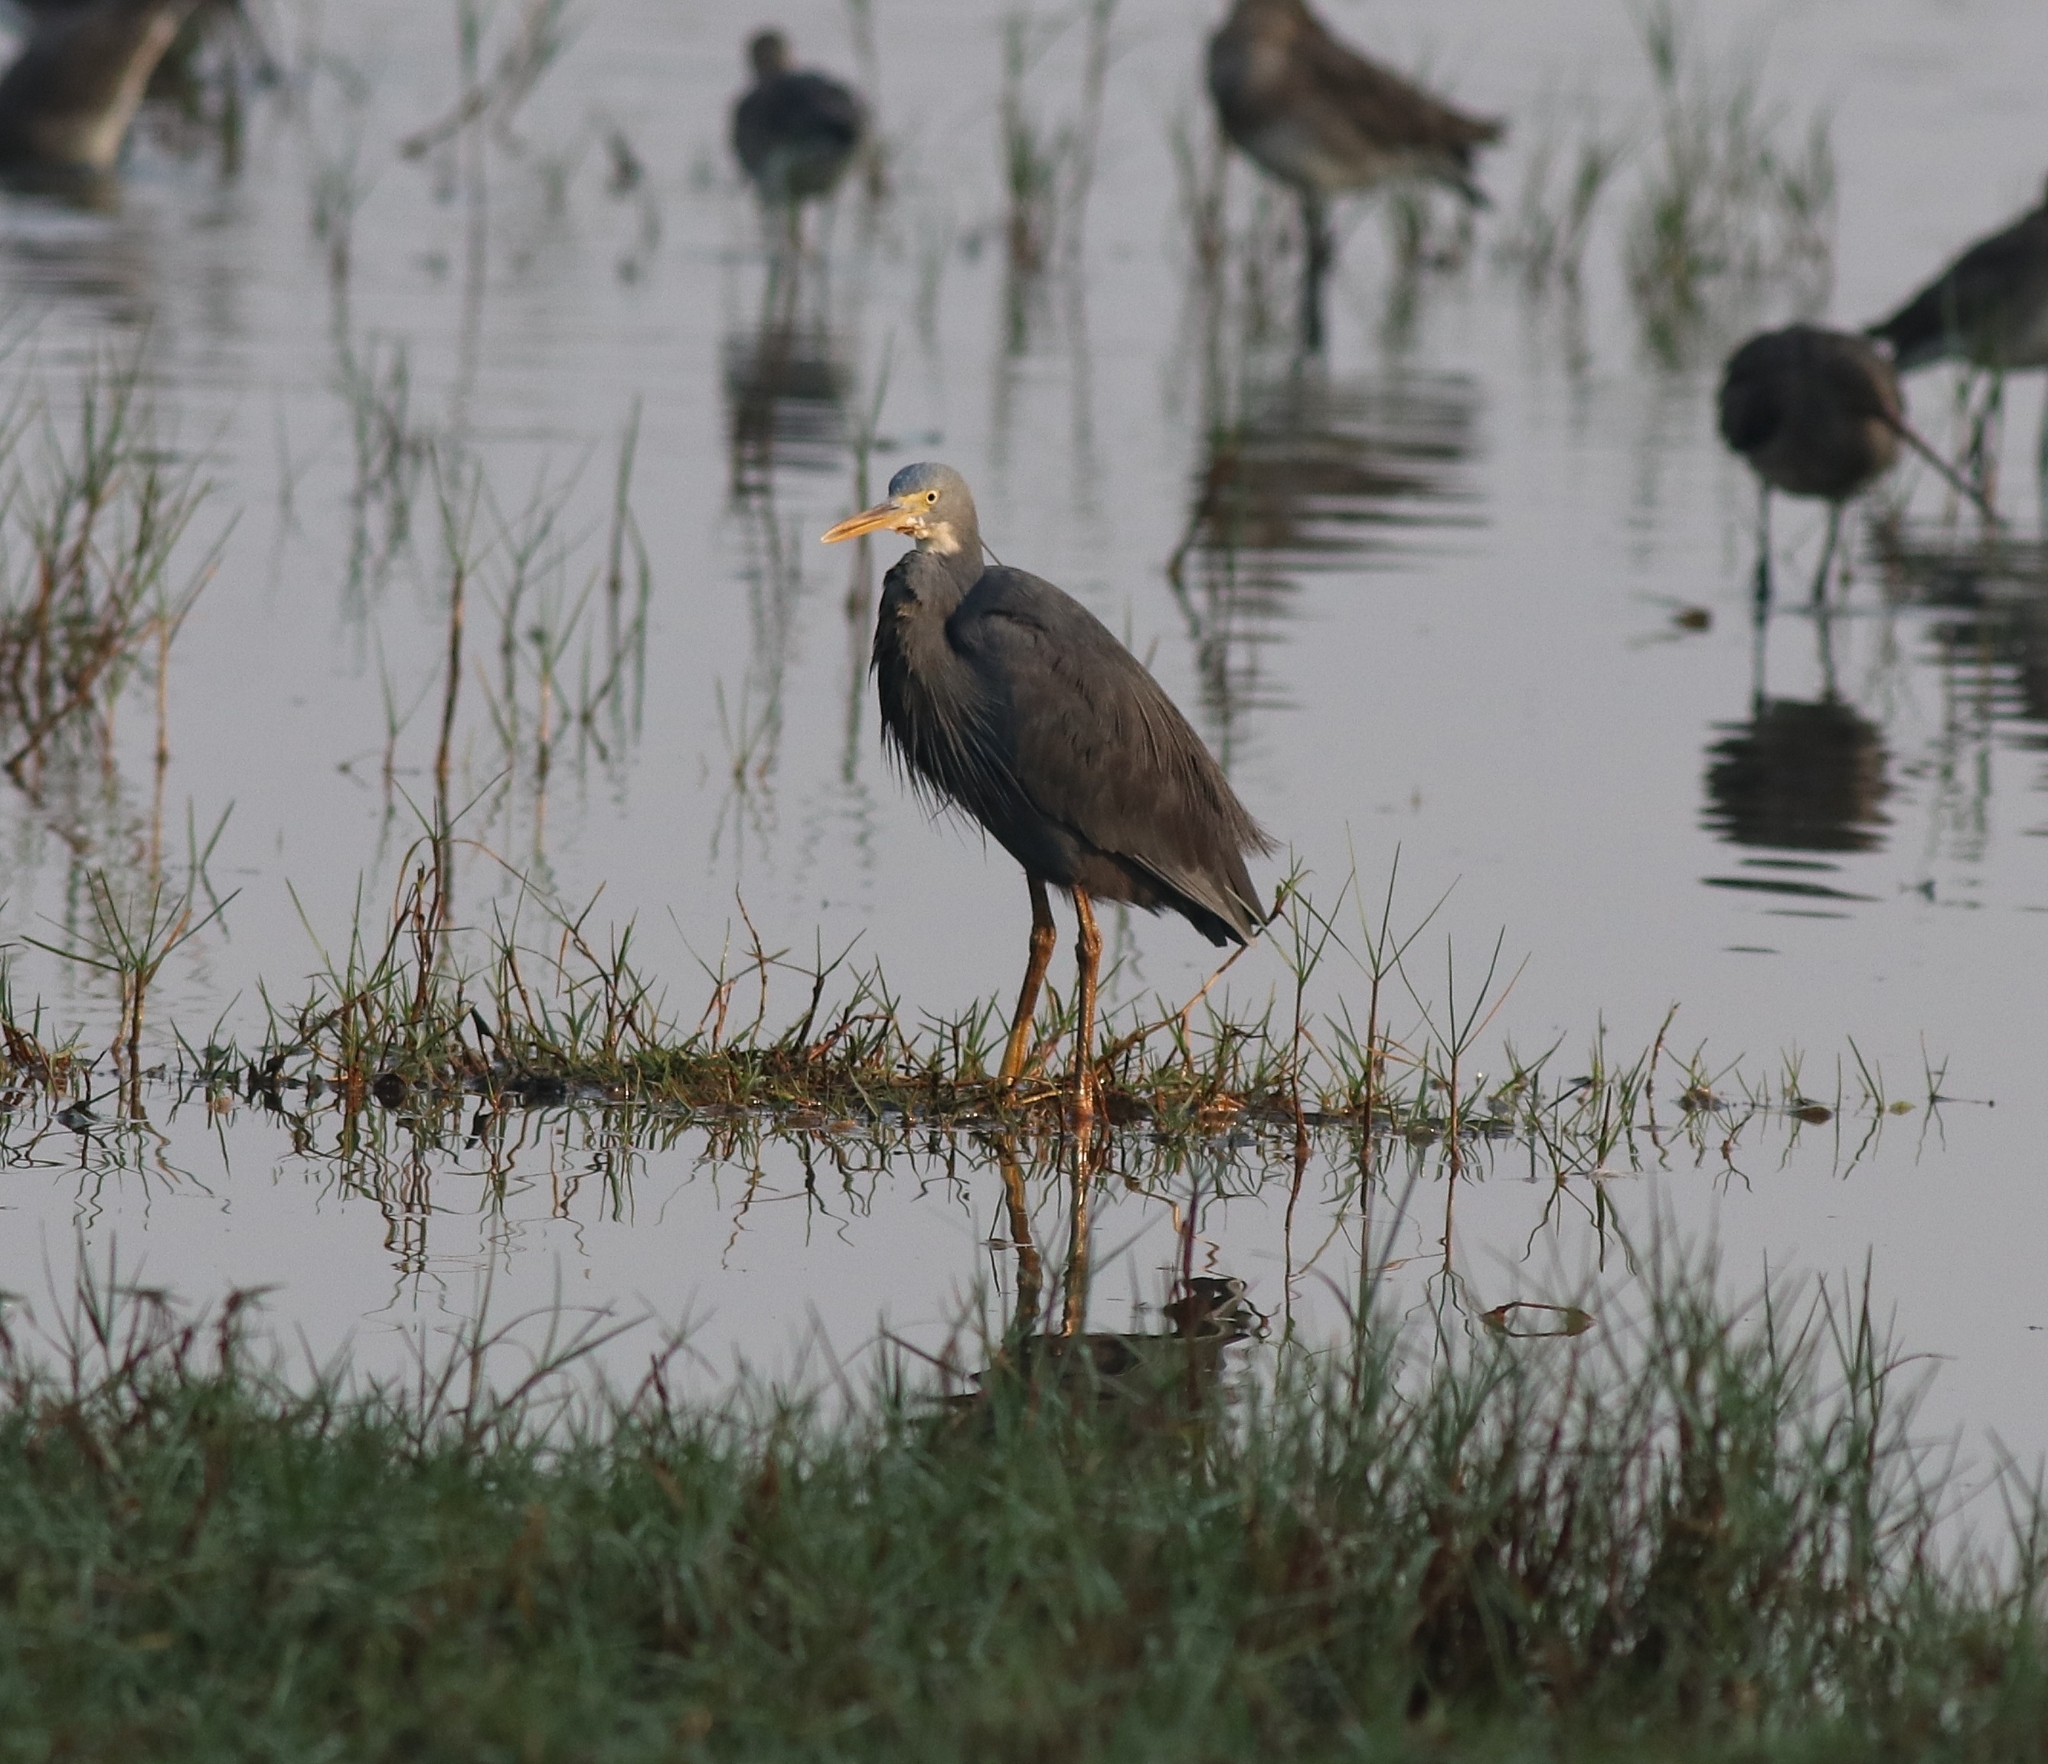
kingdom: Animalia
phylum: Chordata
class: Aves
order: Pelecaniformes
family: Ardeidae
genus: Egretta
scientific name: Egretta gularis
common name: Western reef-heron
